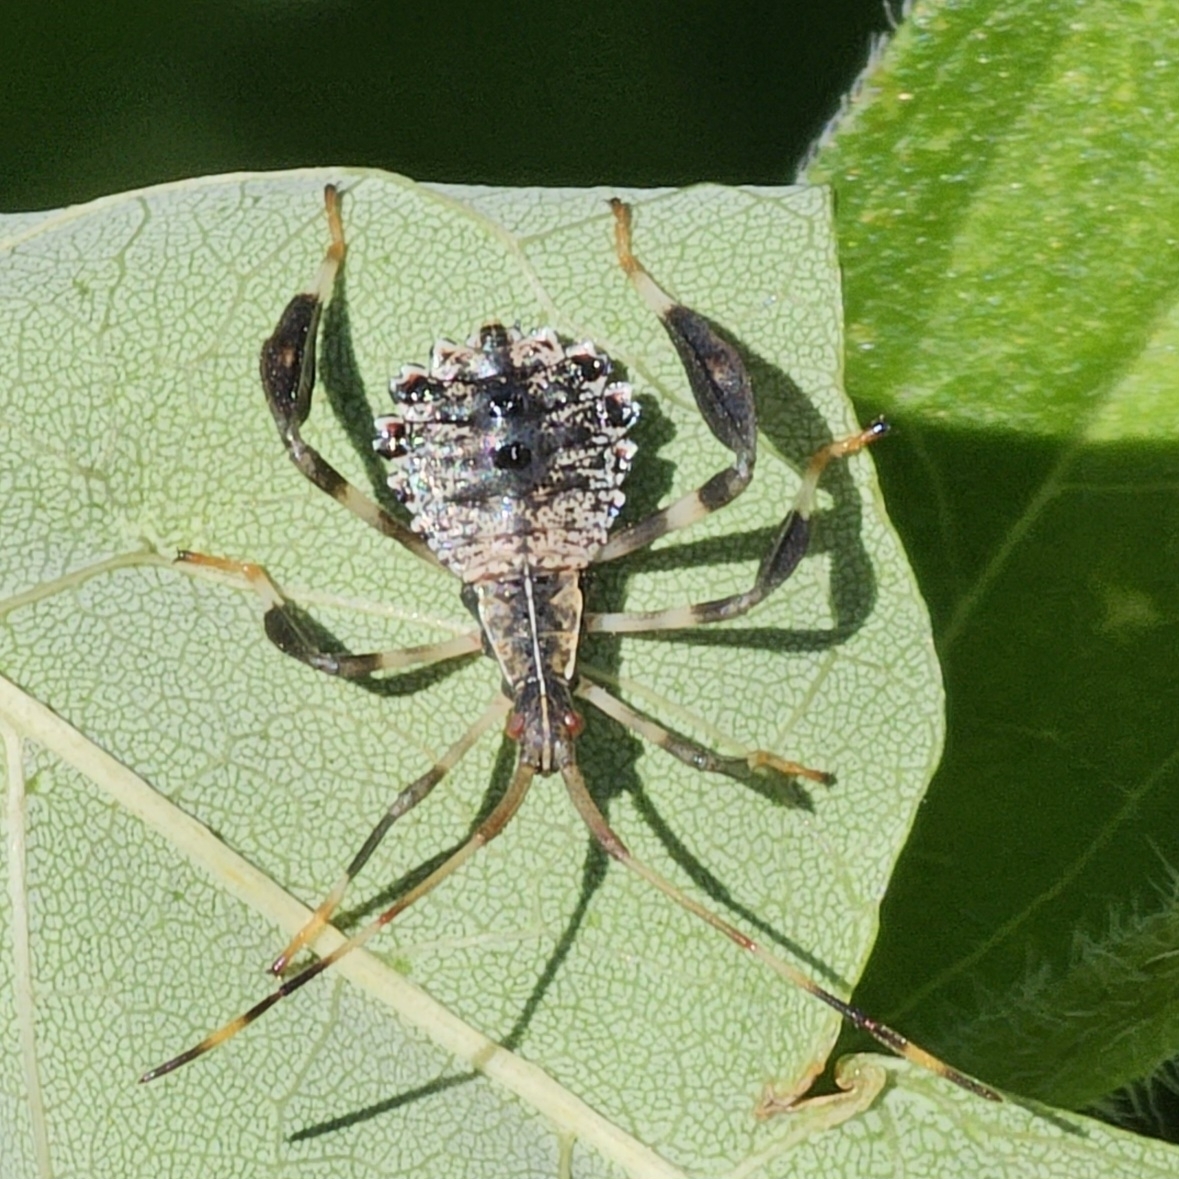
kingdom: Animalia
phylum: Arthropoda
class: Insecta
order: Hemiptera
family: Coreidae
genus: Acanthocephala
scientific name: Acanthocephala terminalis
